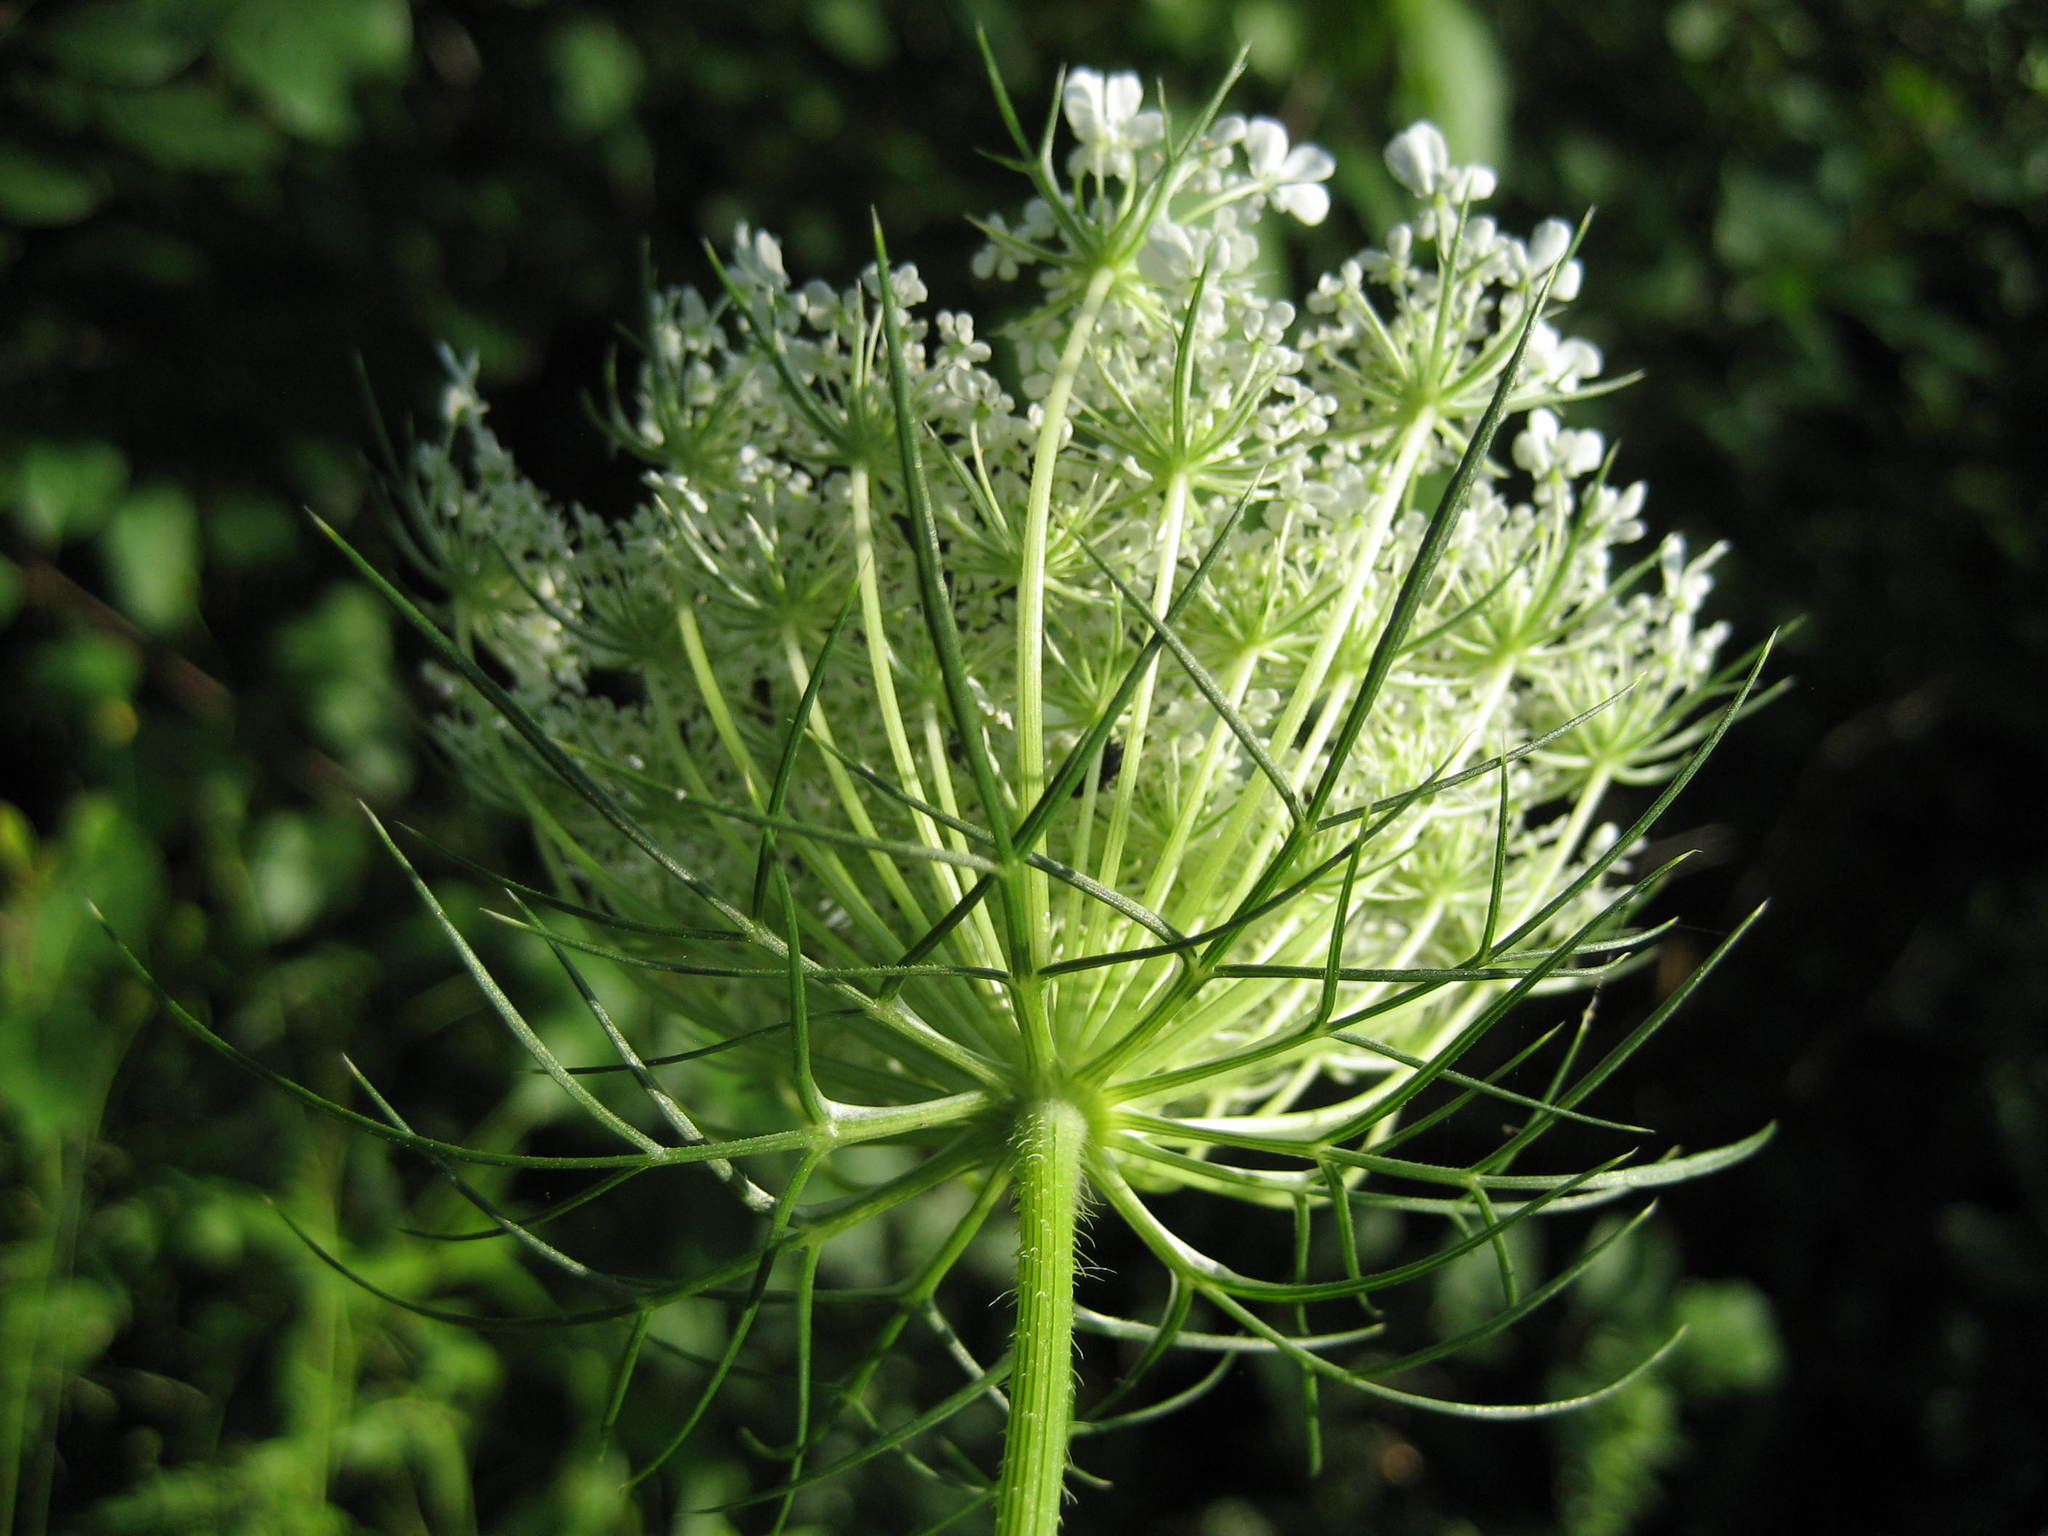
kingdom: Plantae
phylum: Tracheophyta
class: Magnoliopsida
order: Apiales
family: Apiaceae
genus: Daucus
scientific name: Daucus carota
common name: Wild carrot
